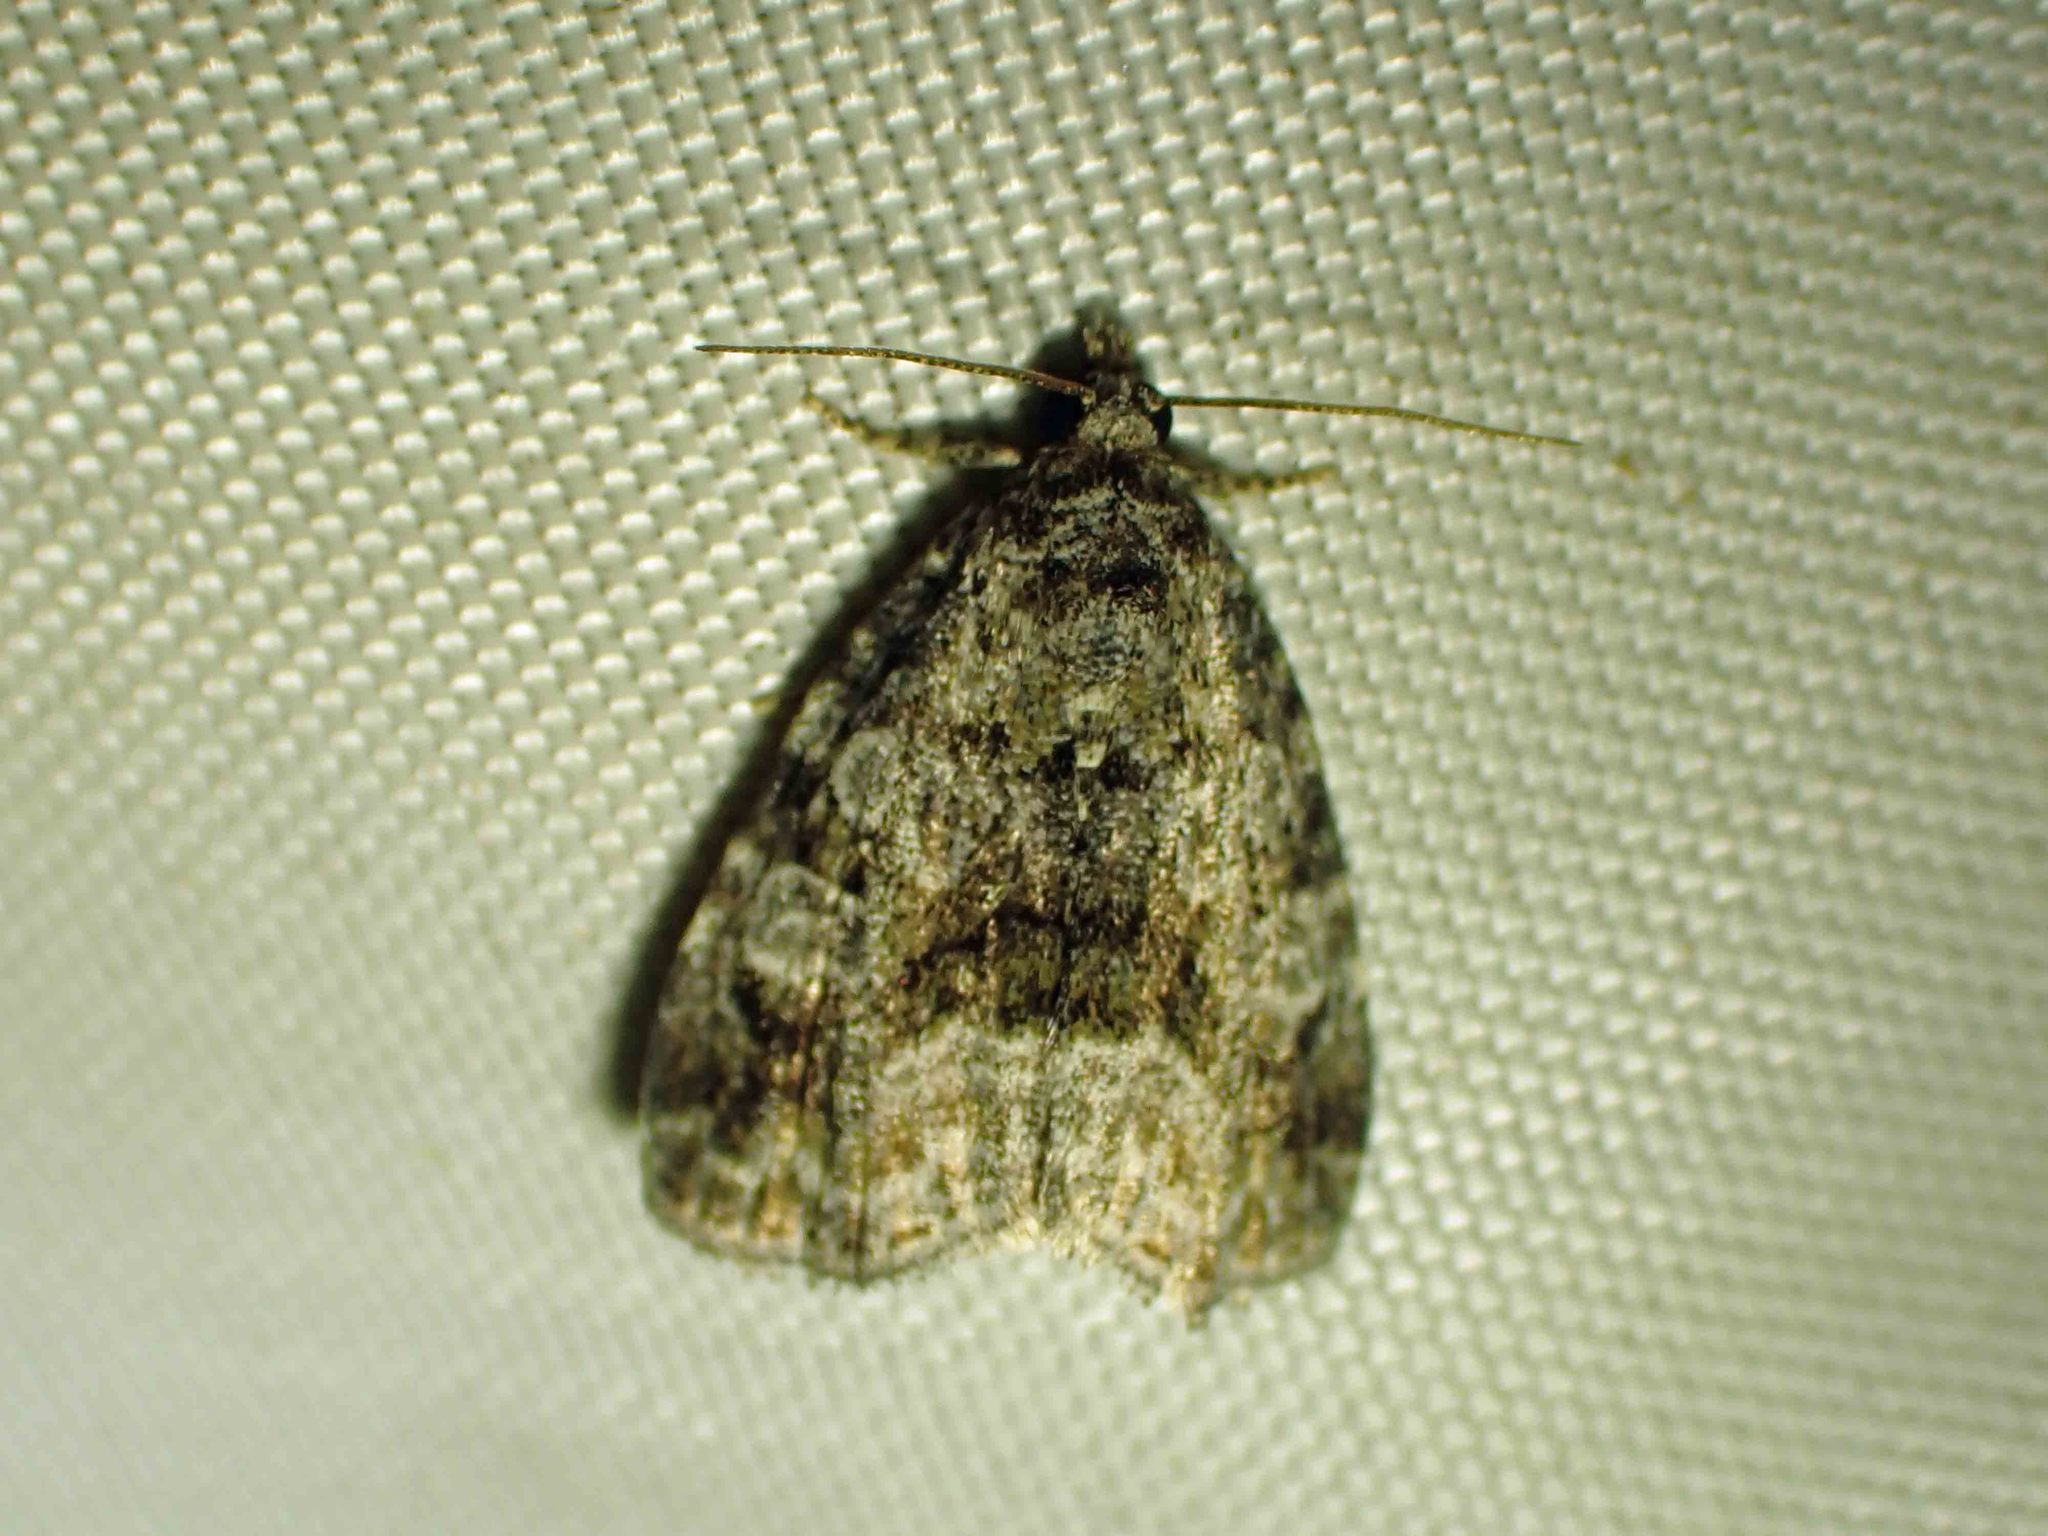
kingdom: Animalia
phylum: Arthropoda
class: Insecta
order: Lepidoptera
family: Noctuidae
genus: Protodeltote
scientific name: Protodeltote muscosula
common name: Large mossy glyph
